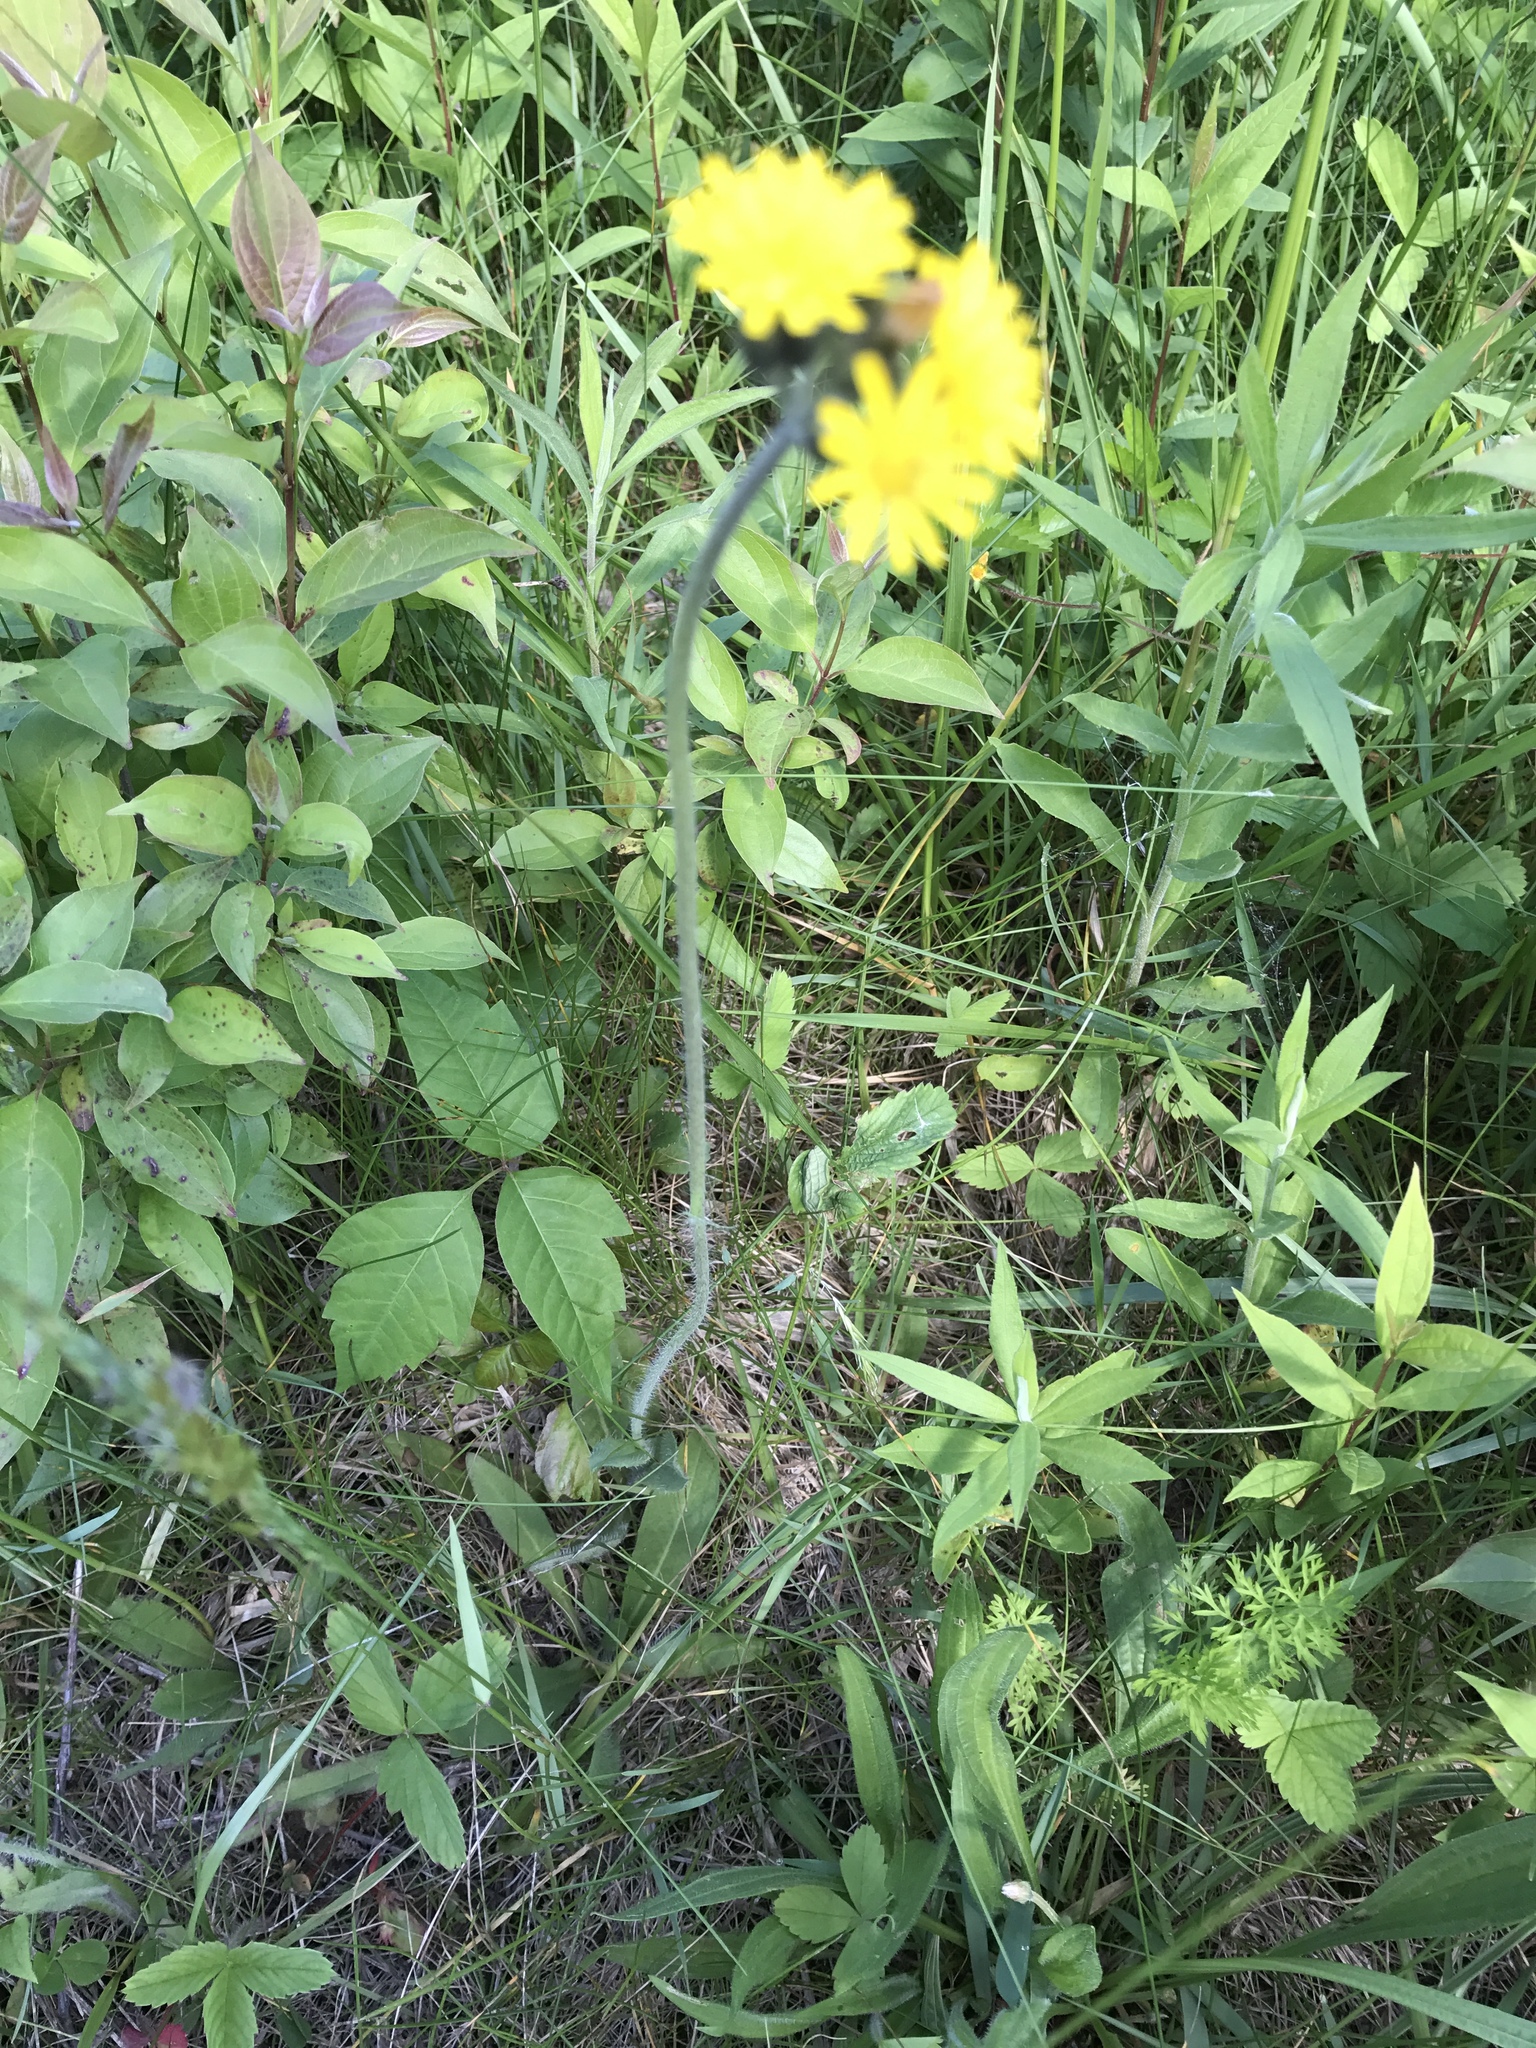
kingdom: Plantae
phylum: Tracheophyta
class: Magnoliopsida
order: Asterales
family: Asteraceae
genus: Pilosella
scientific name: Pilosella caespitosa
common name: Yellow fox-and-cubs
